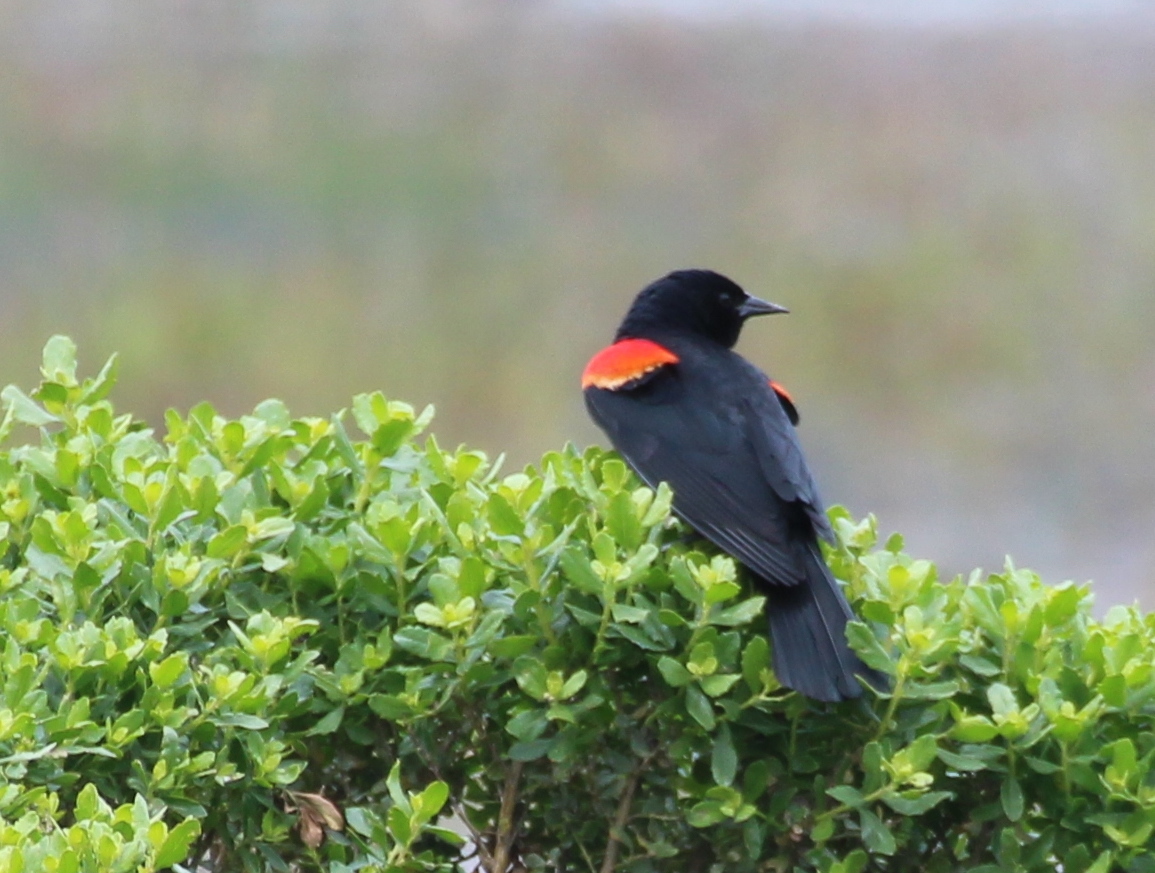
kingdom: Animalia
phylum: Chordata
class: Aves
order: Passeriformes
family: Icteridae
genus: Agelaius
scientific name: Agelaius phoeniceus
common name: Red-winged blackbird
